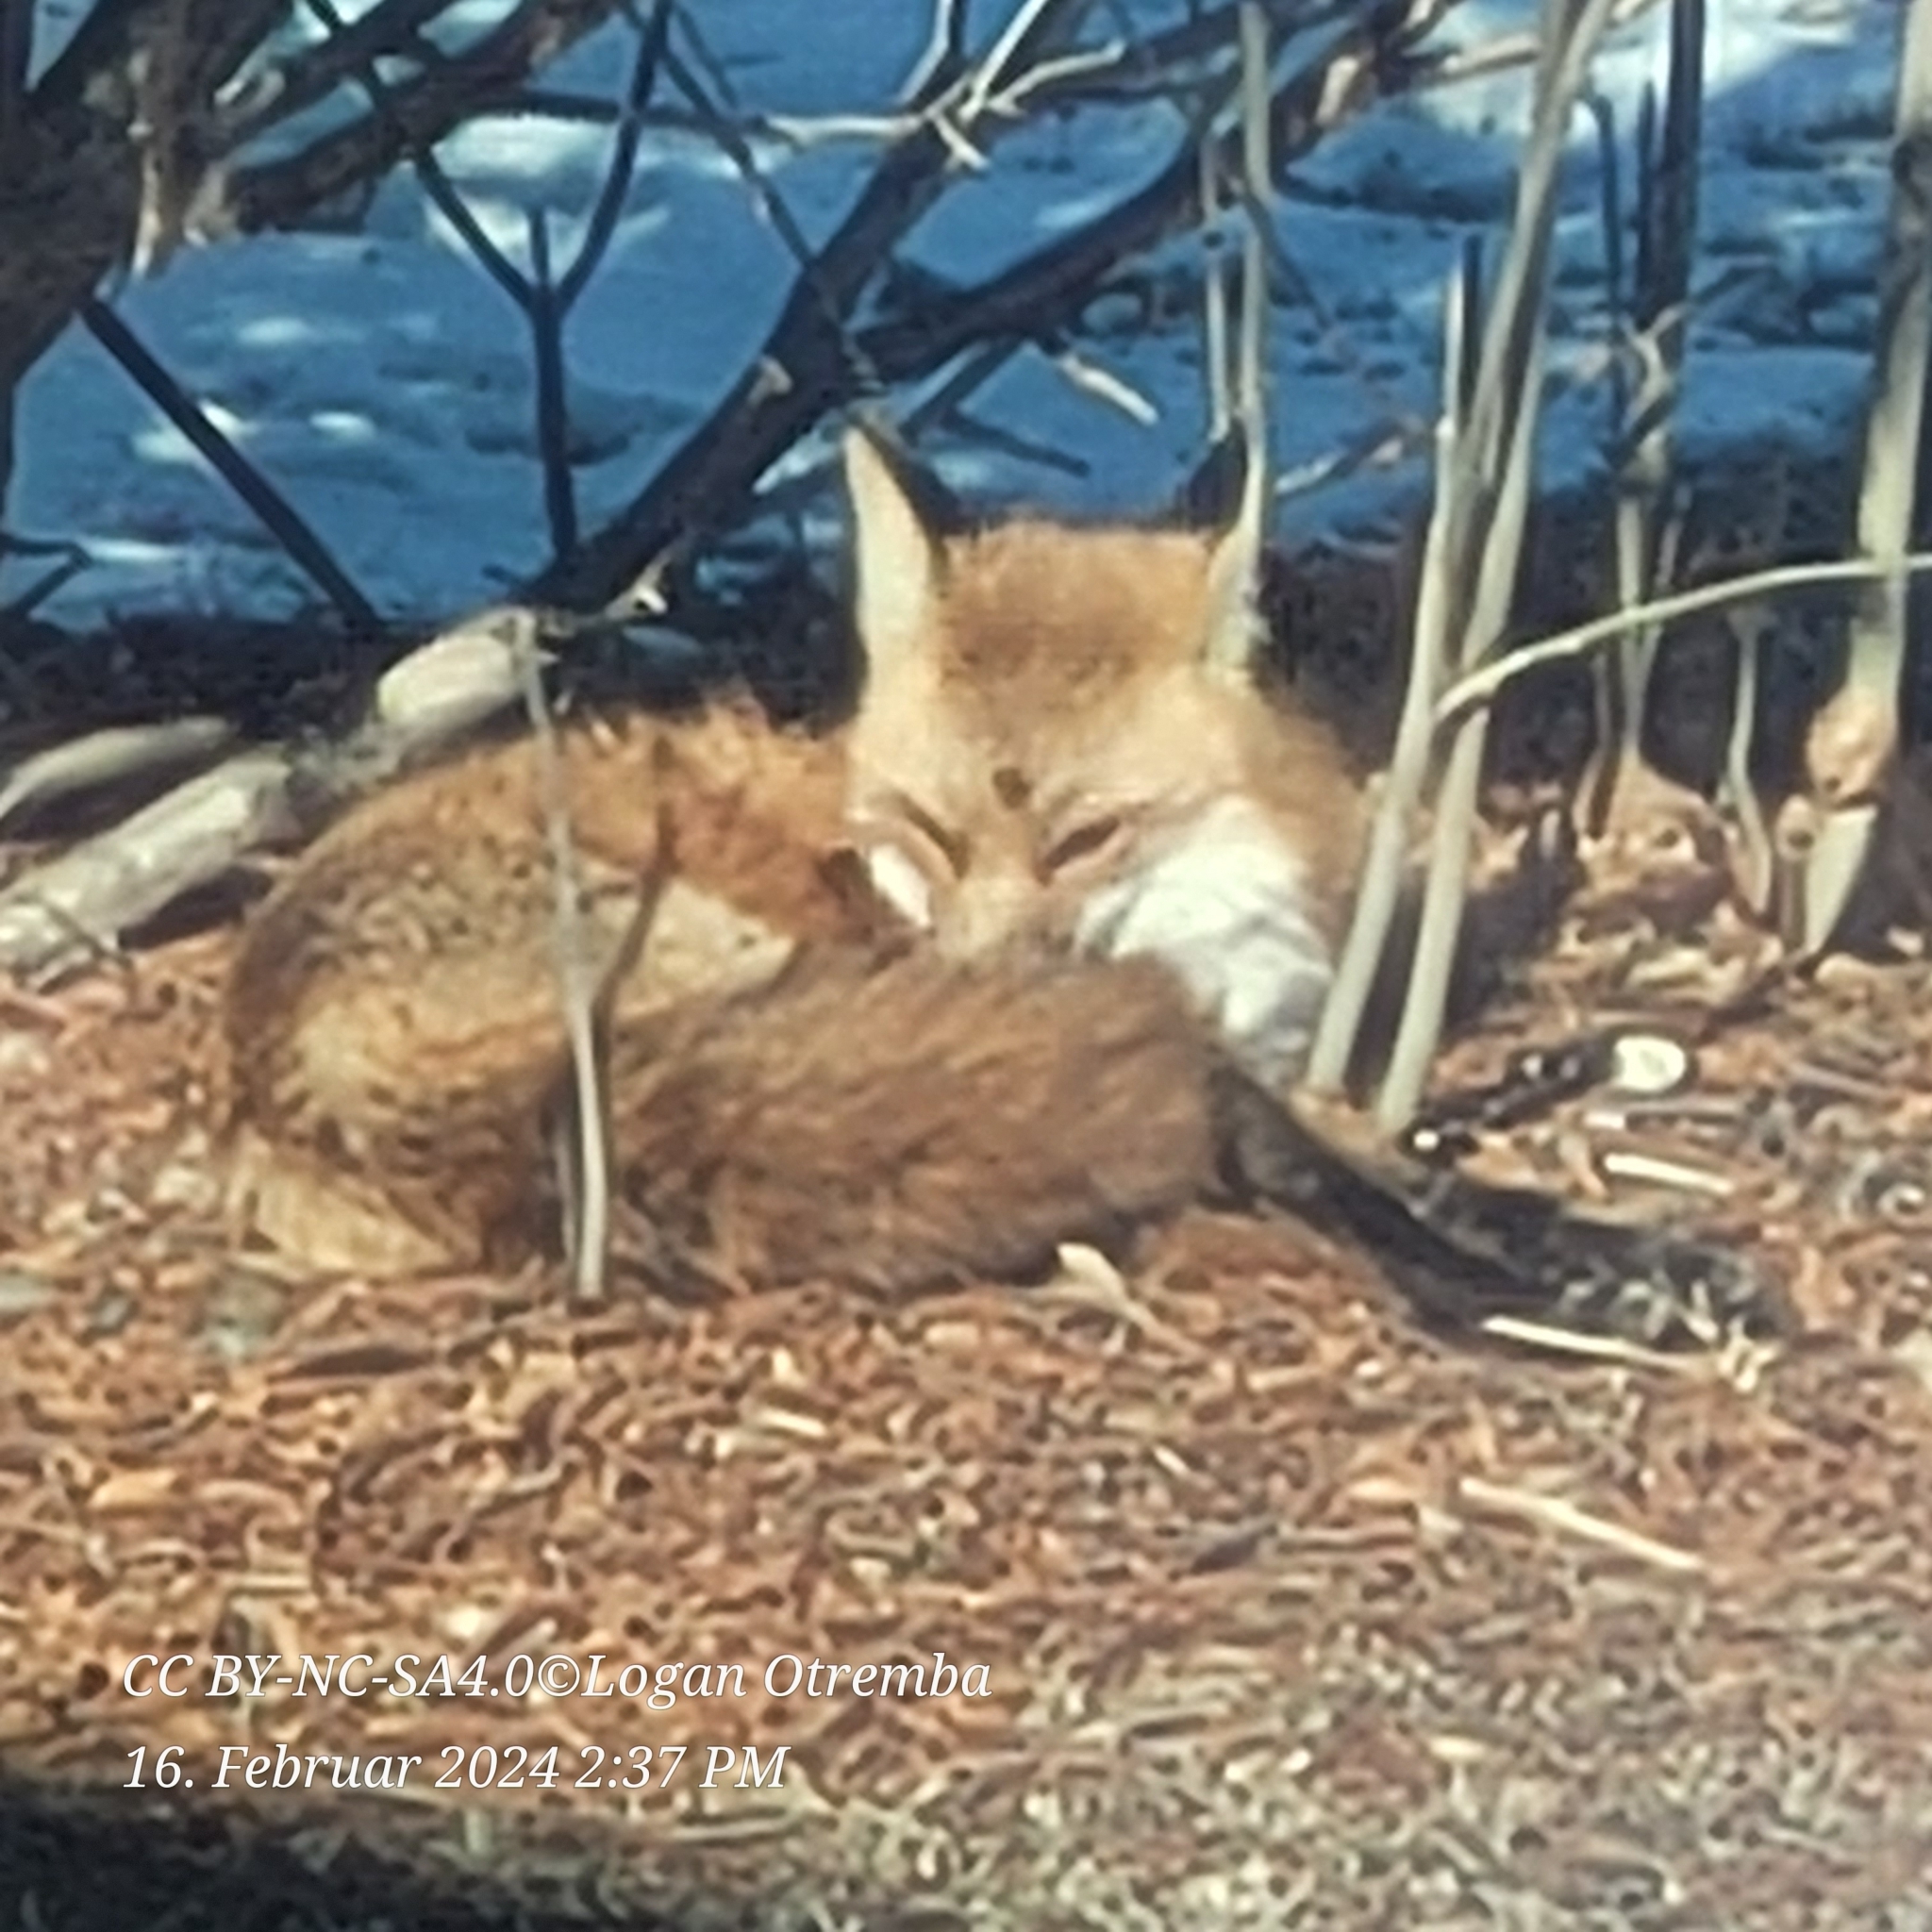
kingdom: Animalia
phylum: Chordata
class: Mammalia
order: Carnivora
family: Canidae
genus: Vulpes
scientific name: Vulpes vulpes
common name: Red fox
